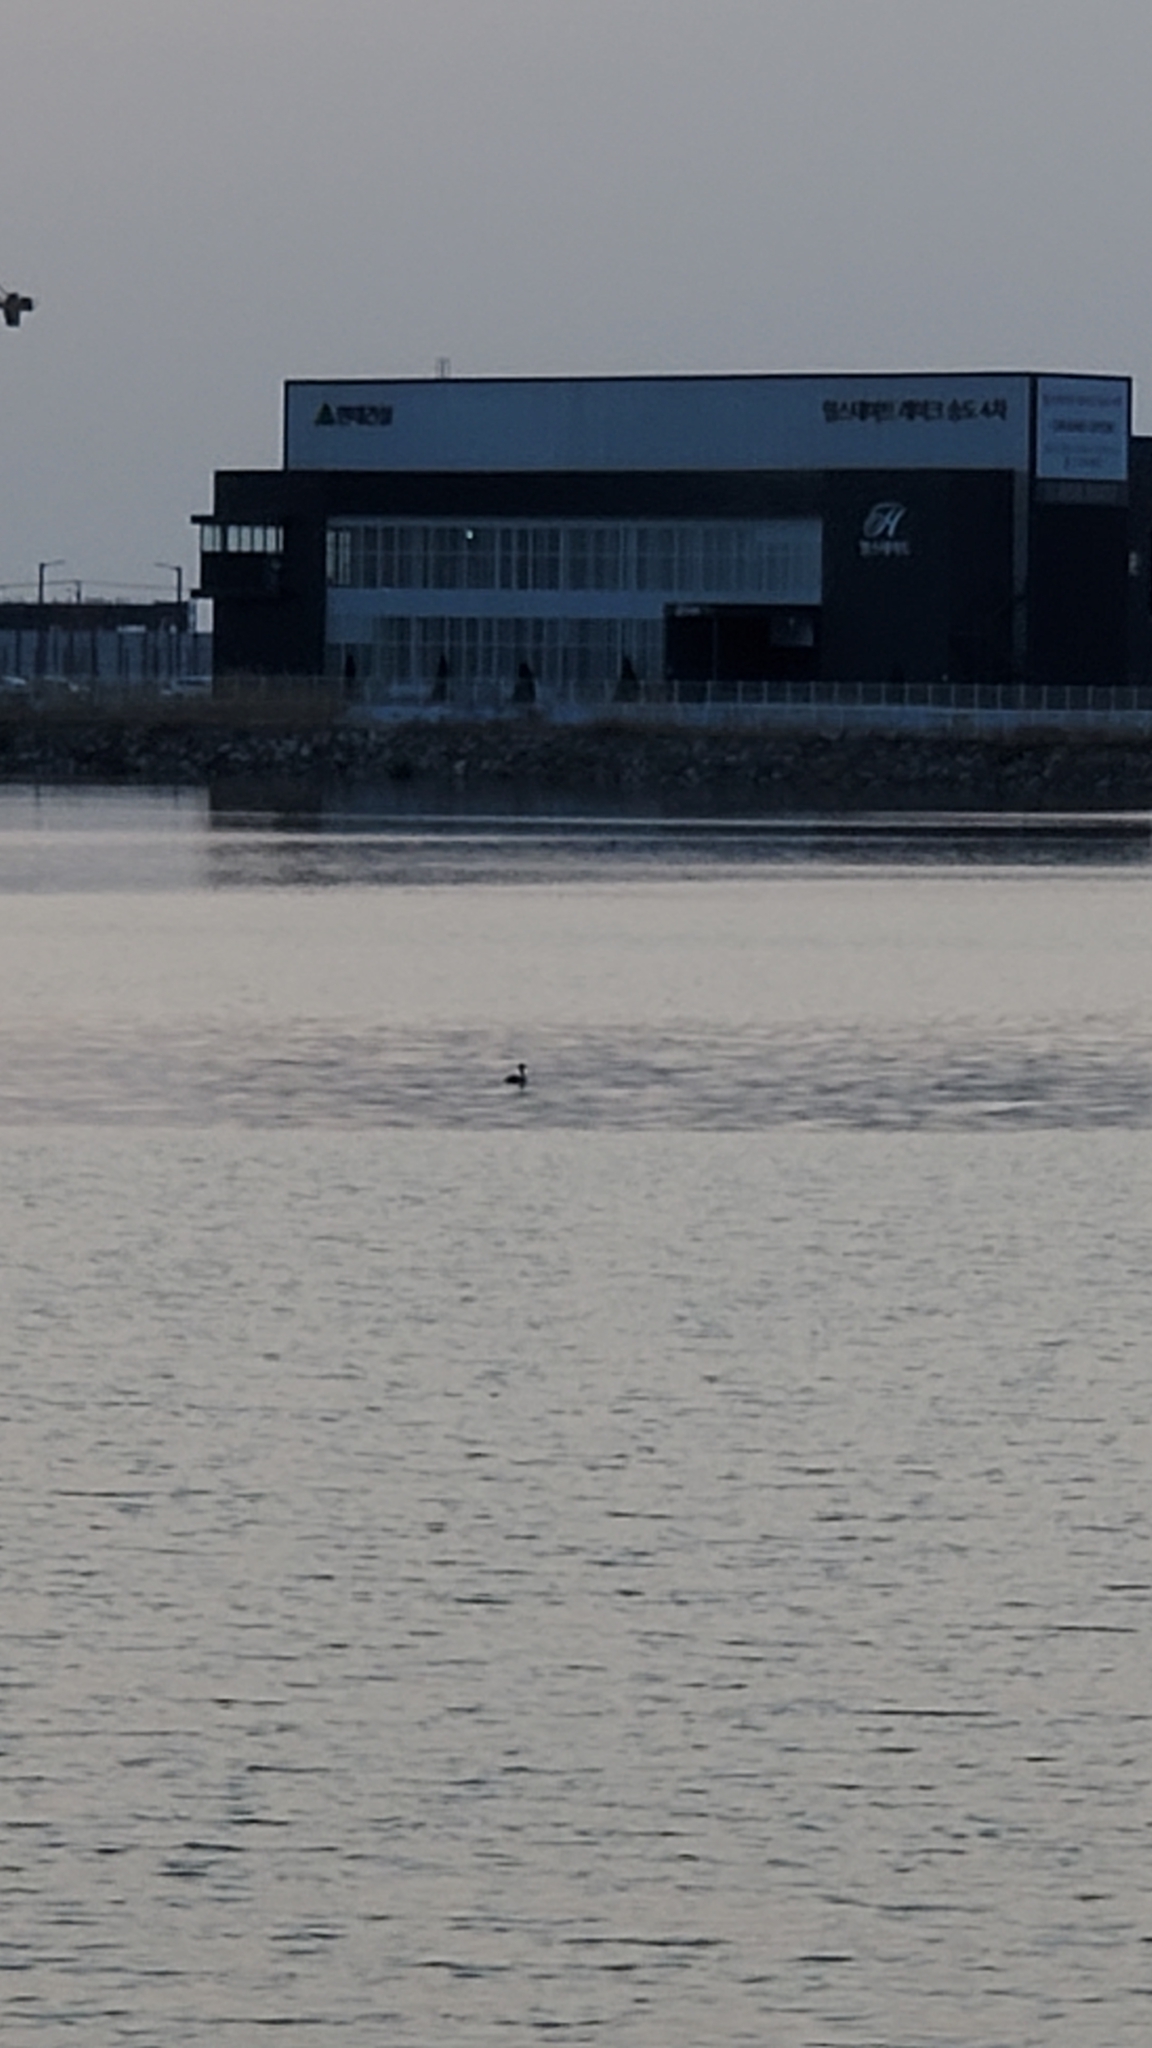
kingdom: Animalia
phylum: Chordata
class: Aves
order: Podicipediformes
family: Podicipedidae
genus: Podiceps
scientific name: Podiceps cristatus
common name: Great crested grebe
